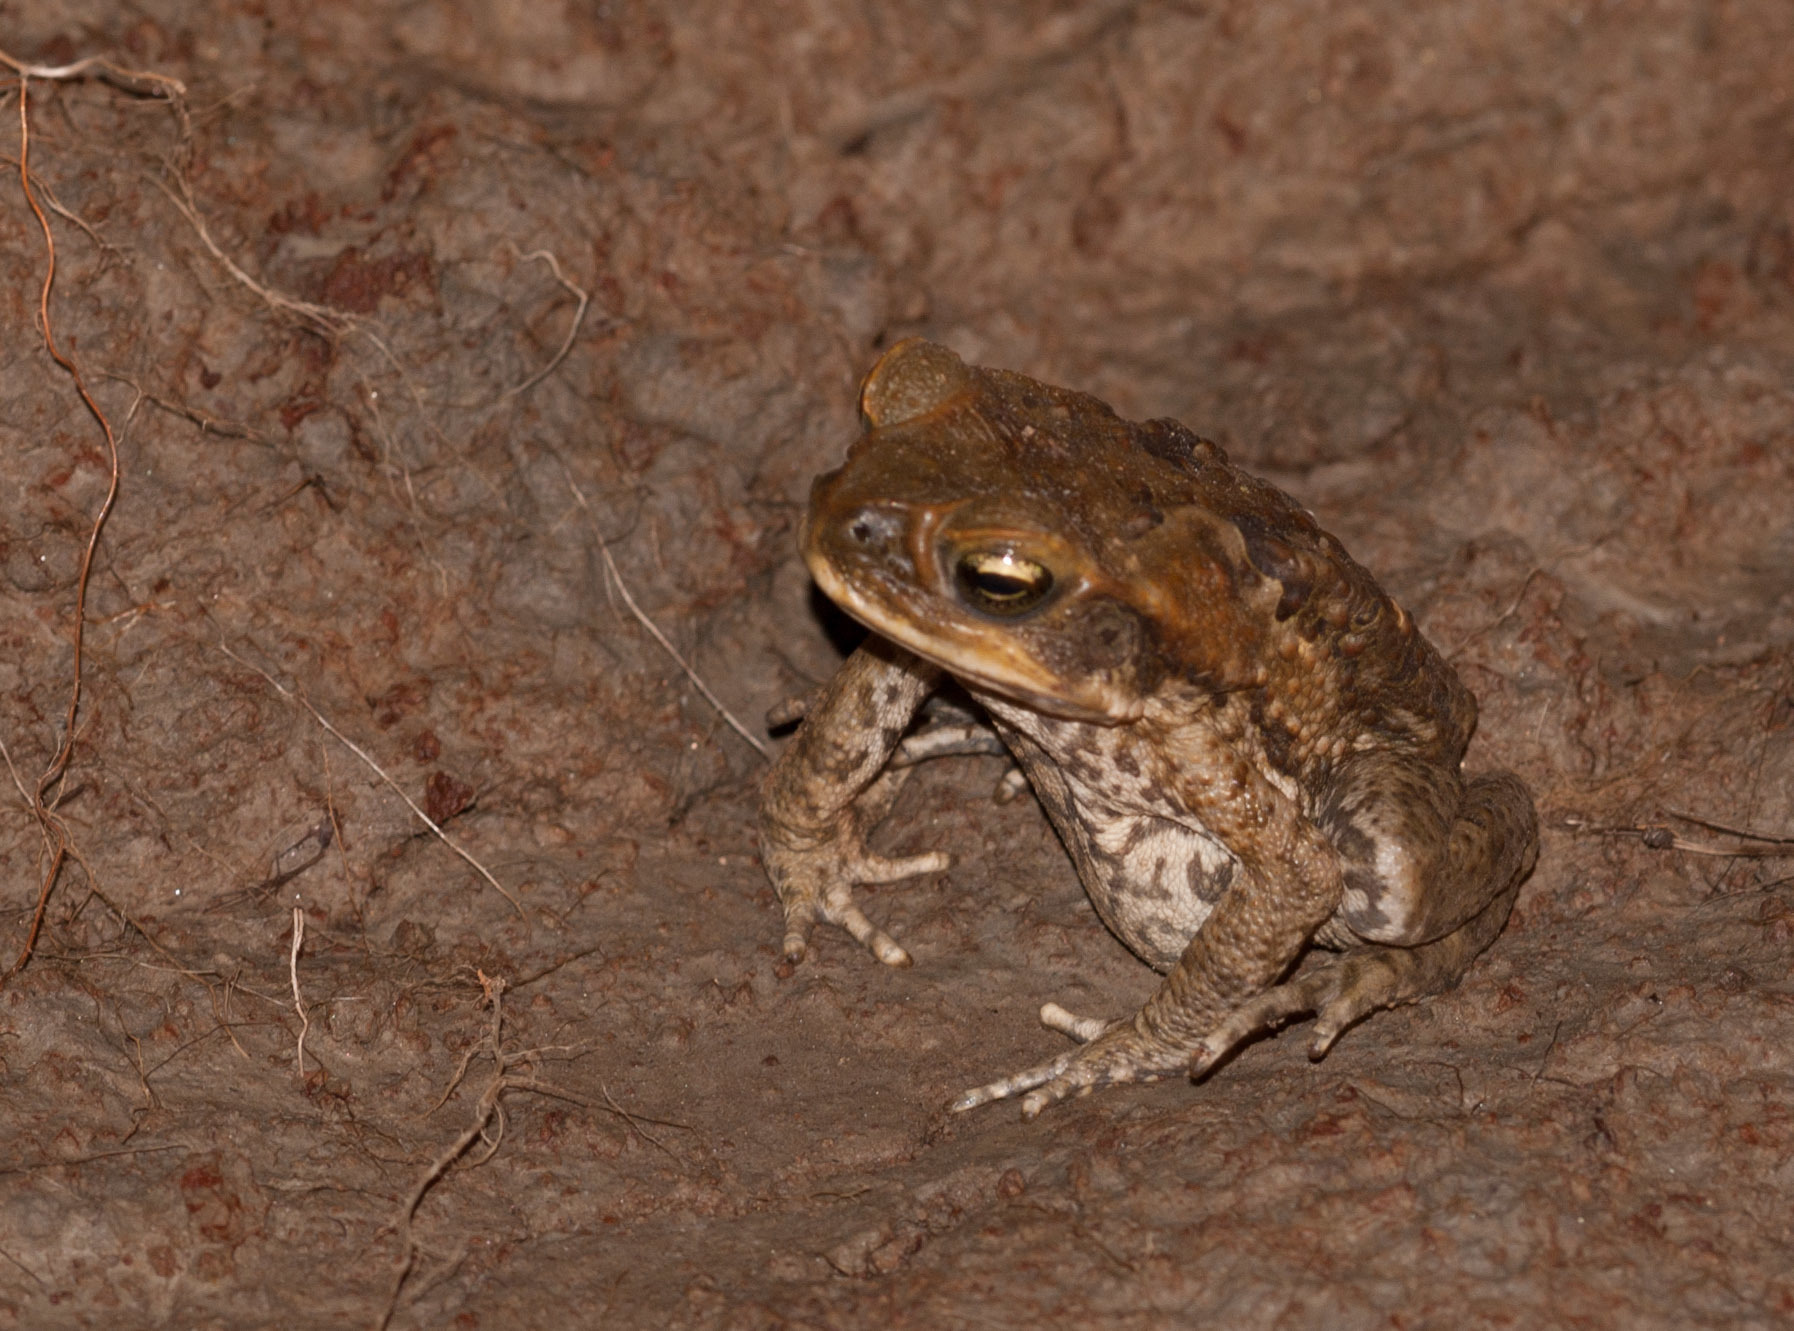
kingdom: Animalia
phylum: Chordata
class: Amphibia
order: Anura
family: Bufonidae
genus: Rhinella
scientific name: Rhinella marina
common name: Cane toad
